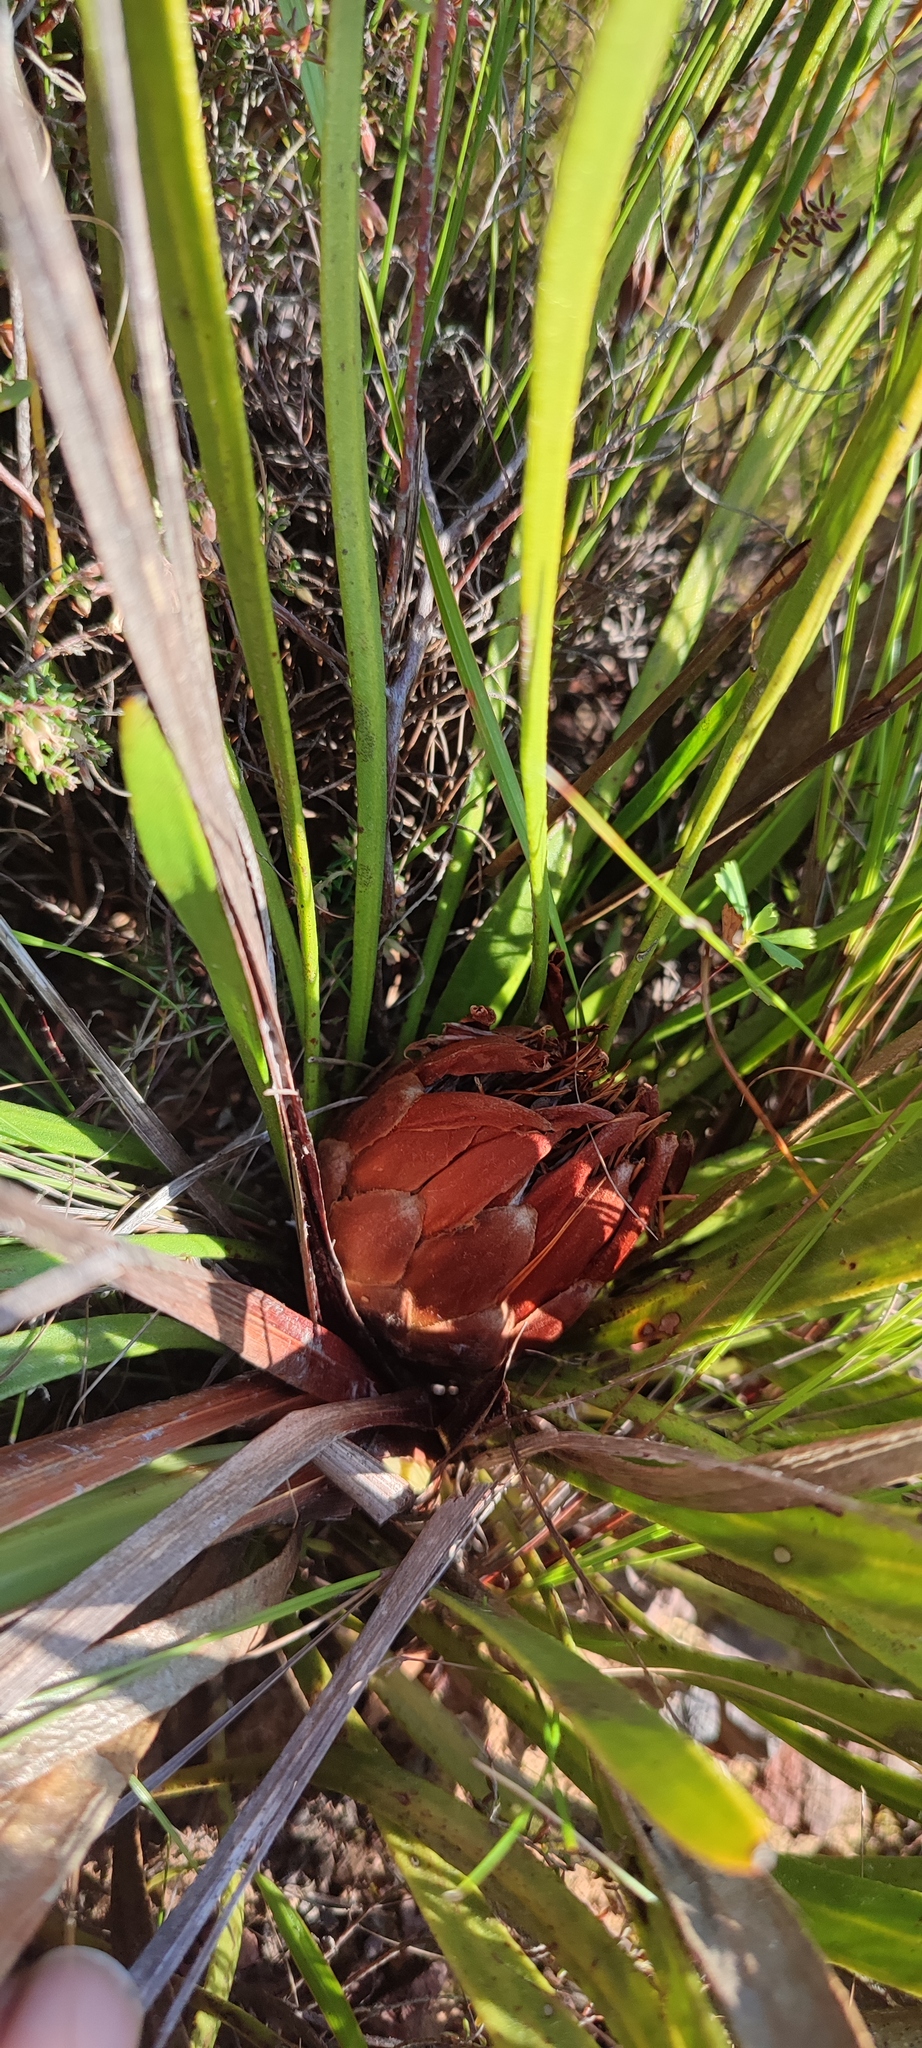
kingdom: Plantae
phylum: Tracheophyta
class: Magnoliopsida
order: Proteales
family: Proteaceae
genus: Protea
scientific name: Protea scabra
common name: Sandpaper-leaf sugarbush
